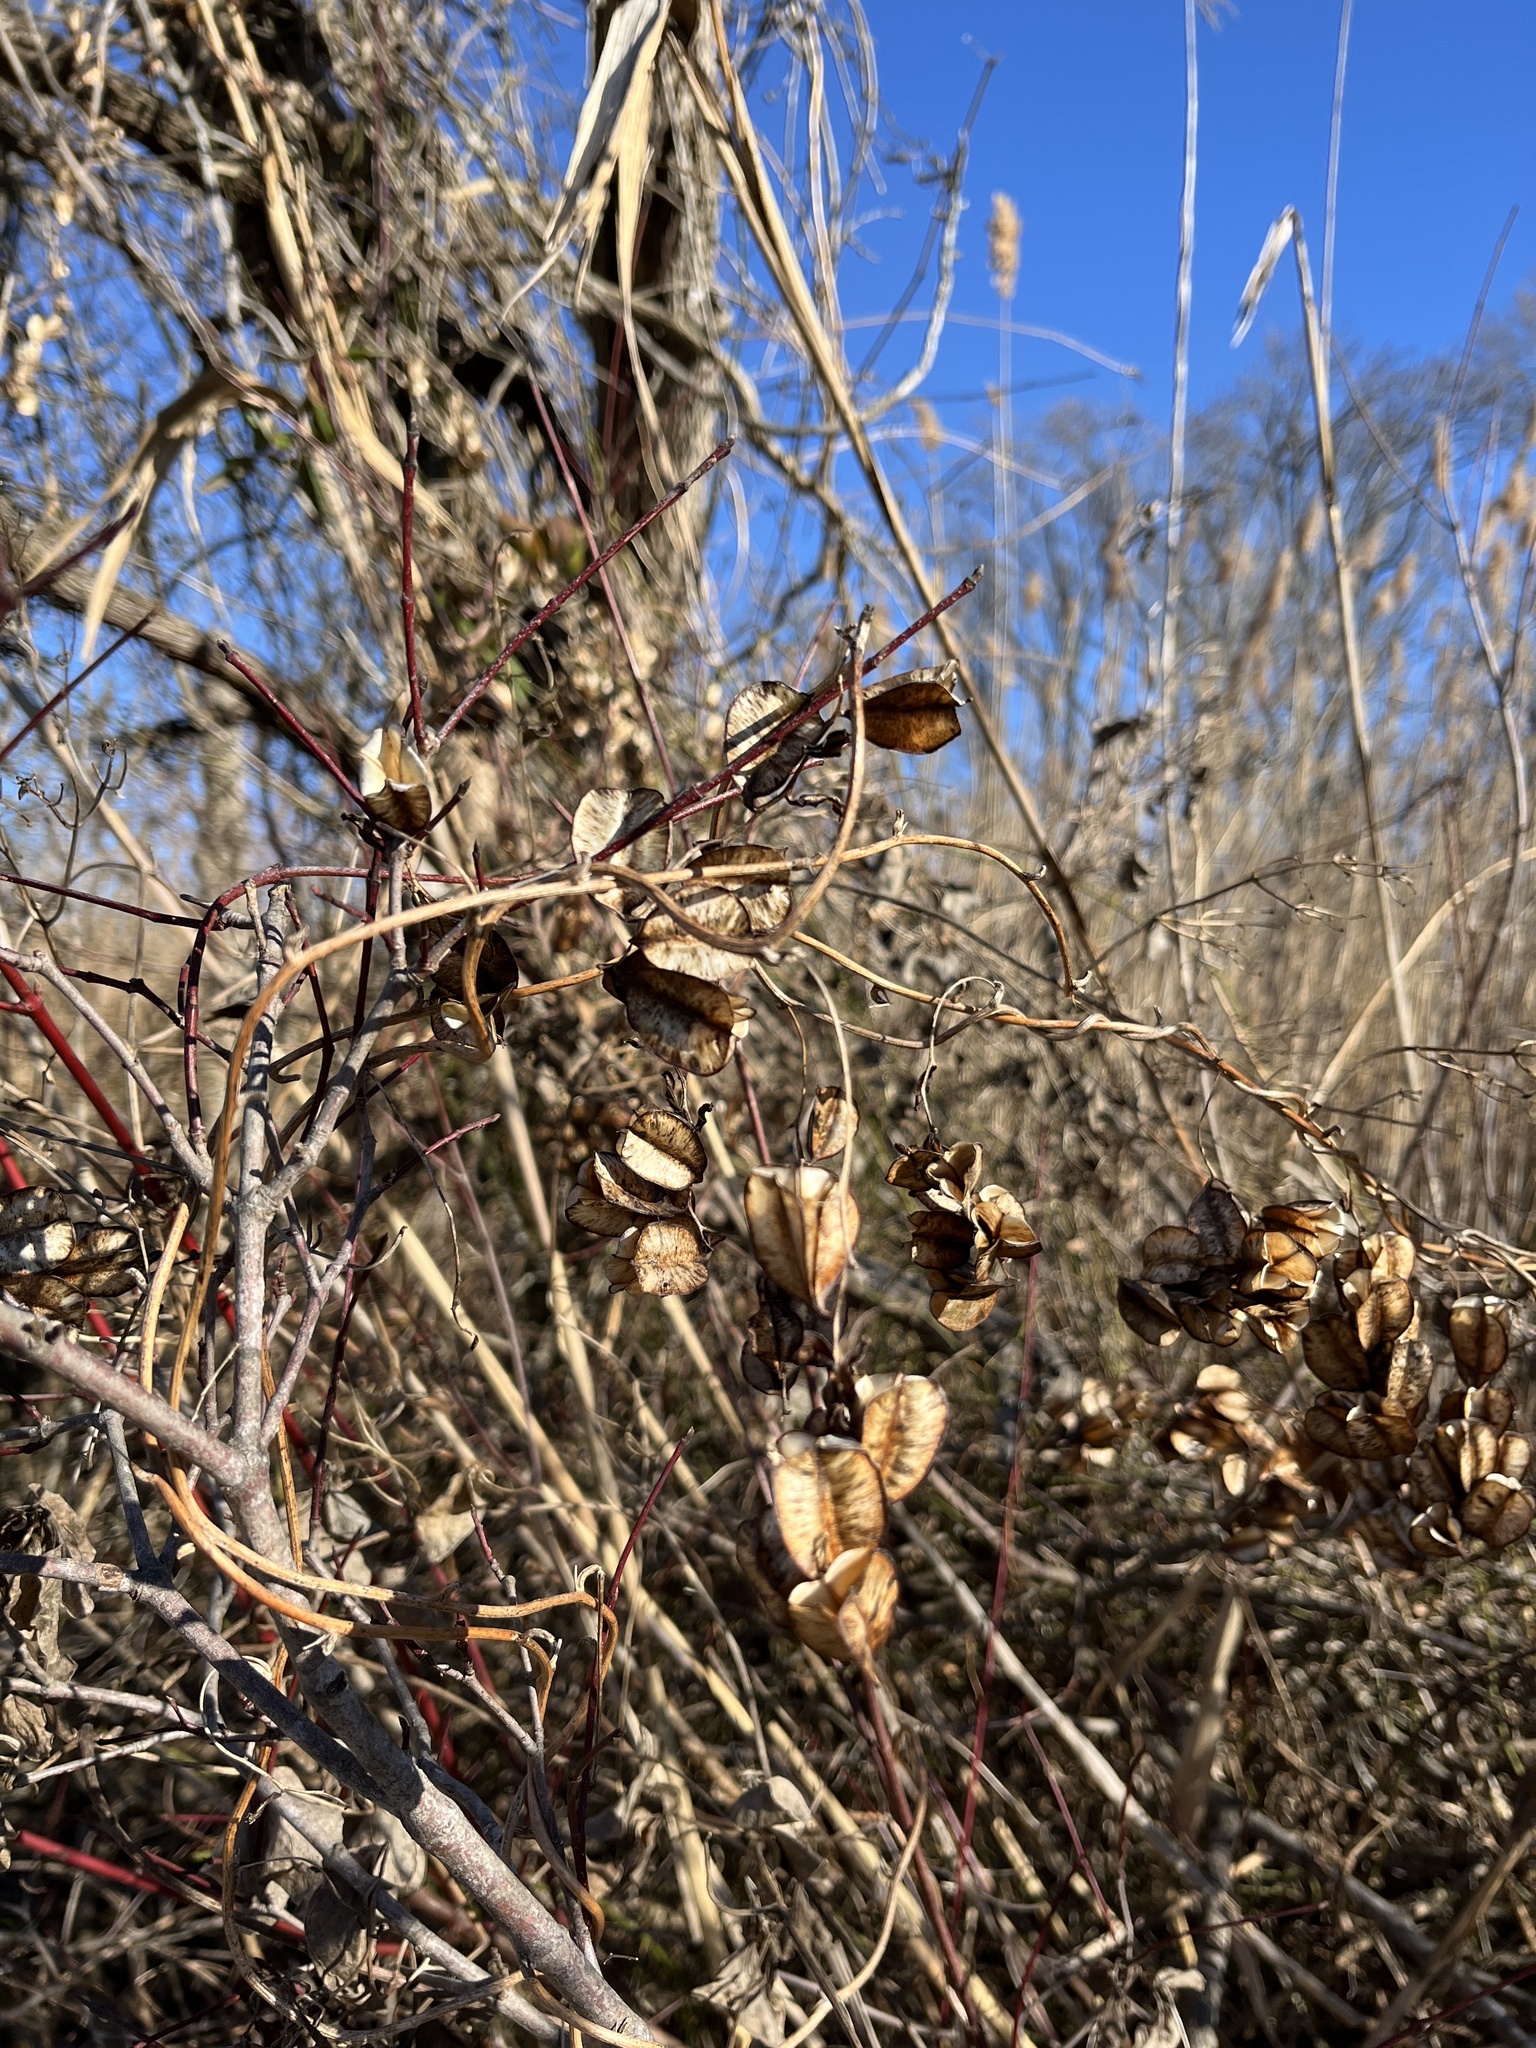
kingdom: Plantae
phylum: Tracheophyta
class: Liliopsida
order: Dioscoreales
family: Dioscoreaceae
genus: Dioscorea
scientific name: Dioscorea villosa
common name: Wild yam
